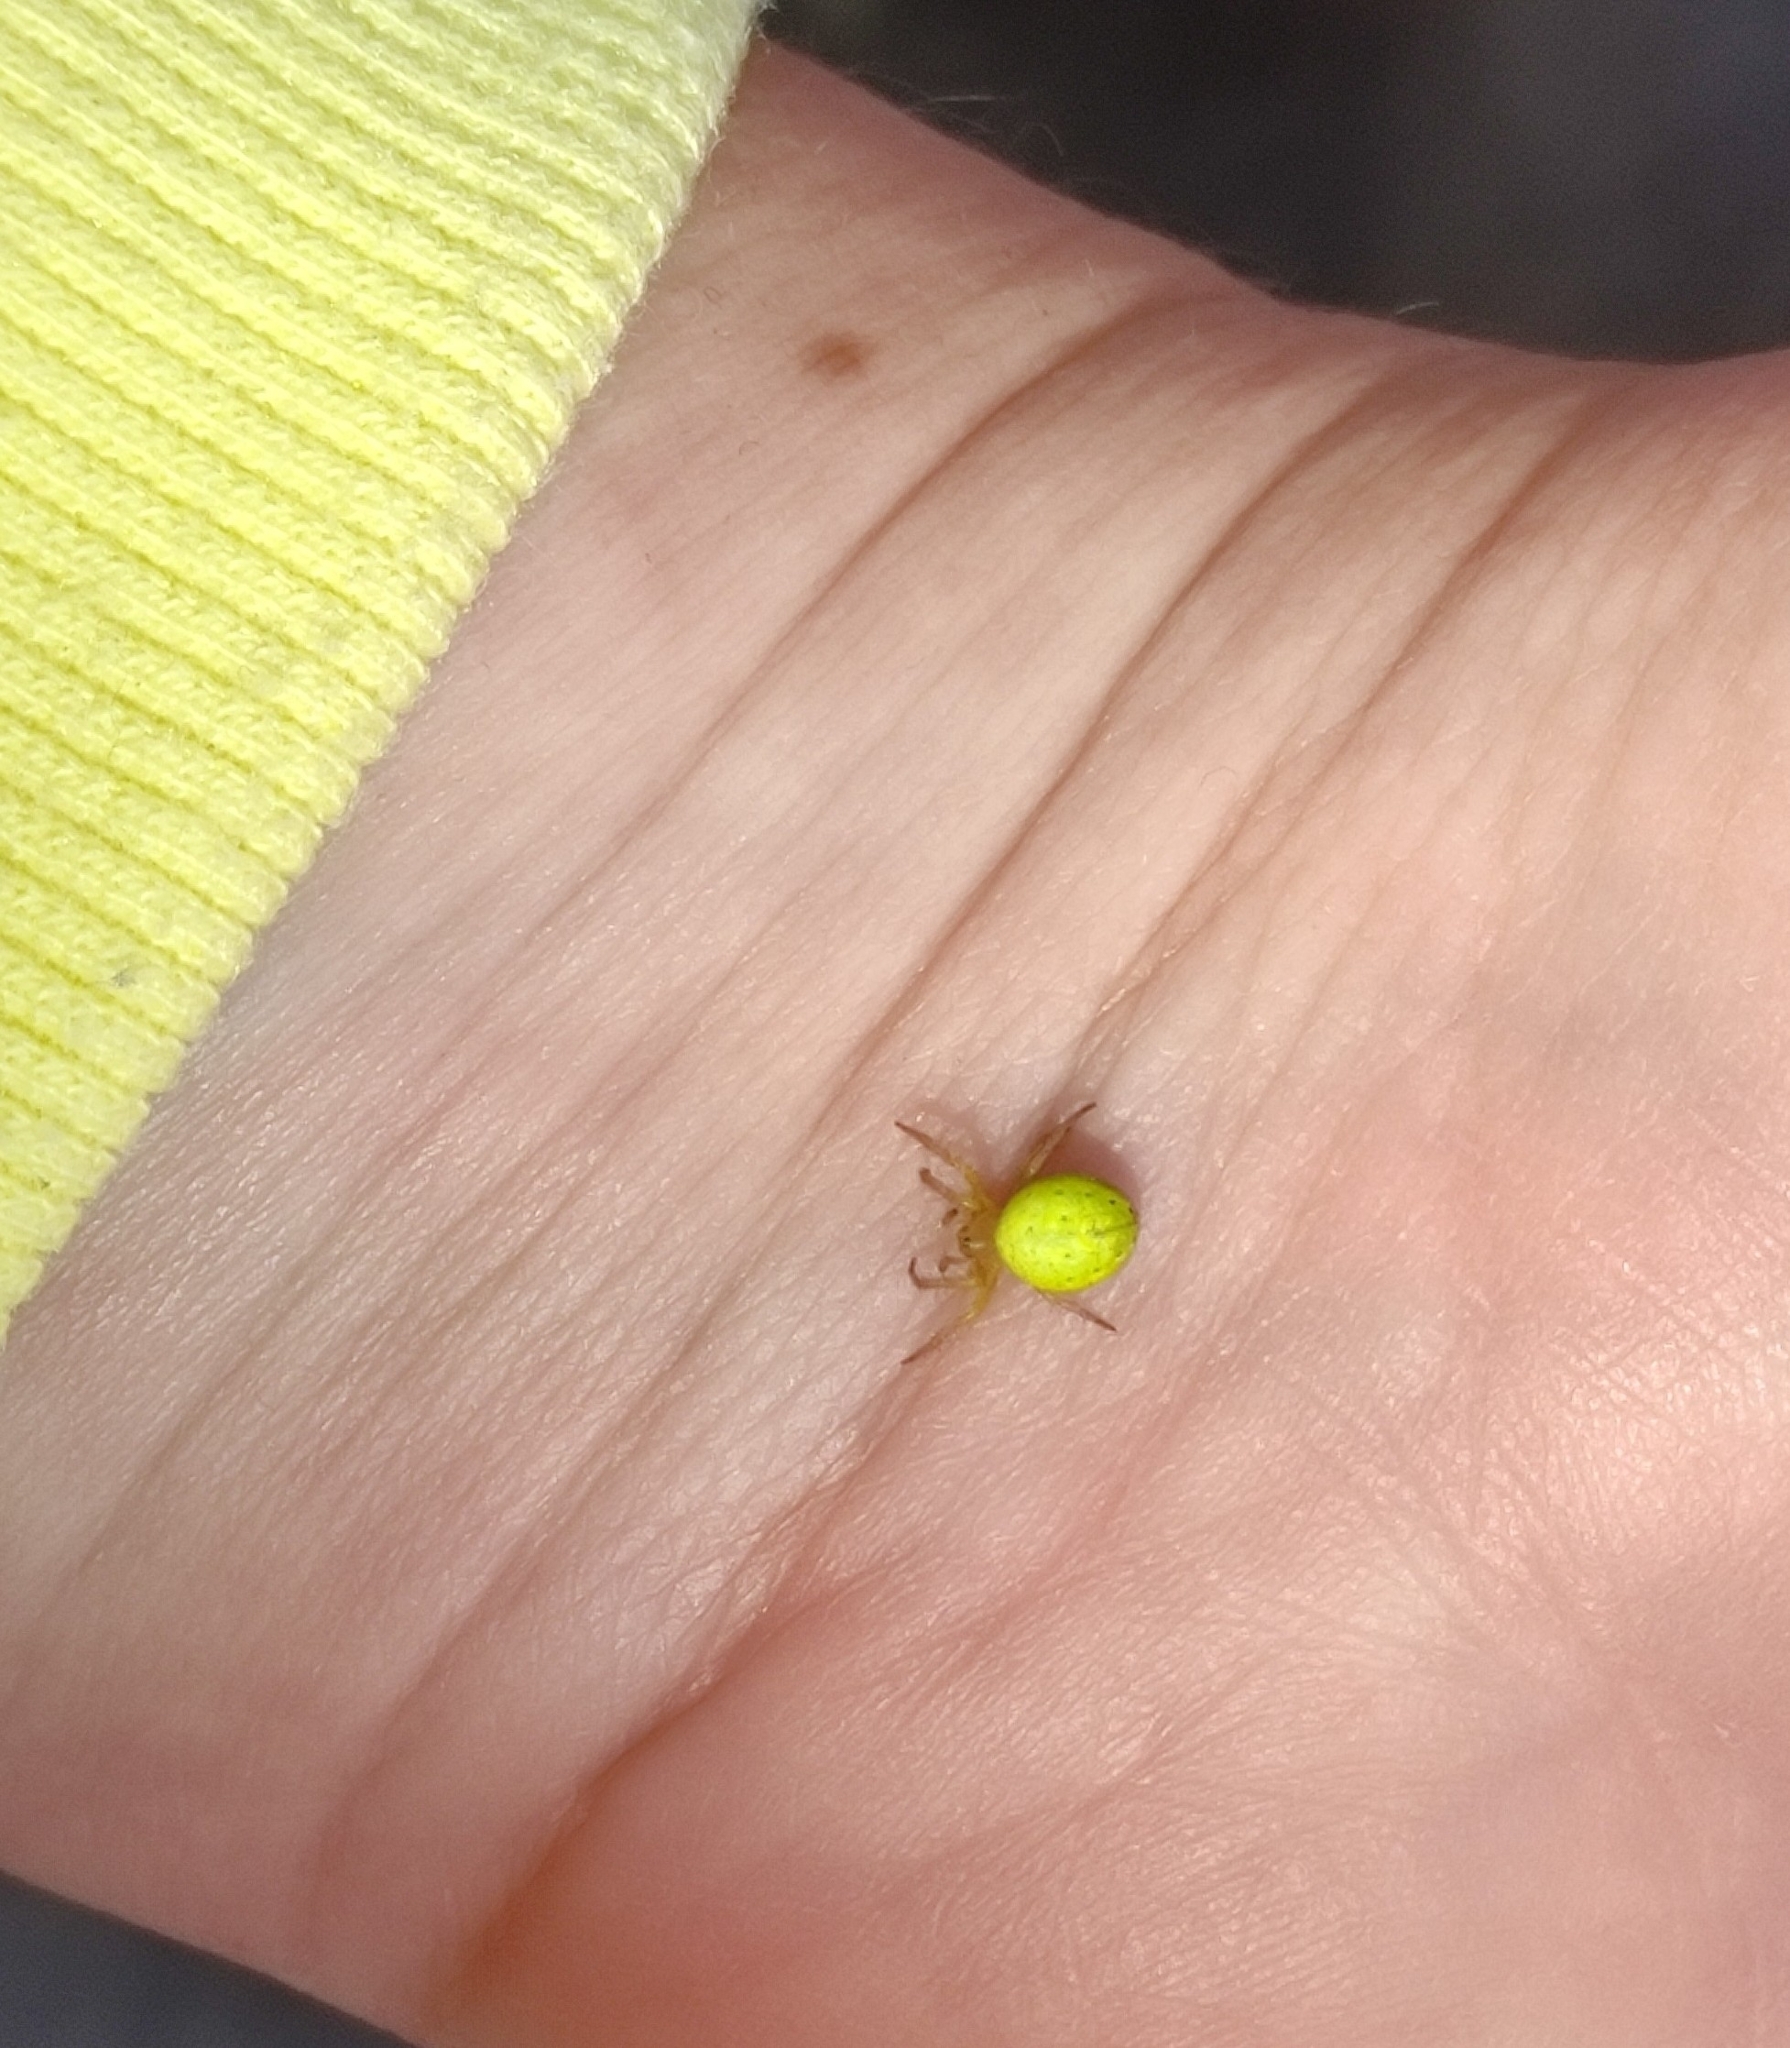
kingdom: Animalia
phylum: Arthropoda
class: Arachnida
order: Araneae
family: Araneidae
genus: Araniella
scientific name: Araniella
